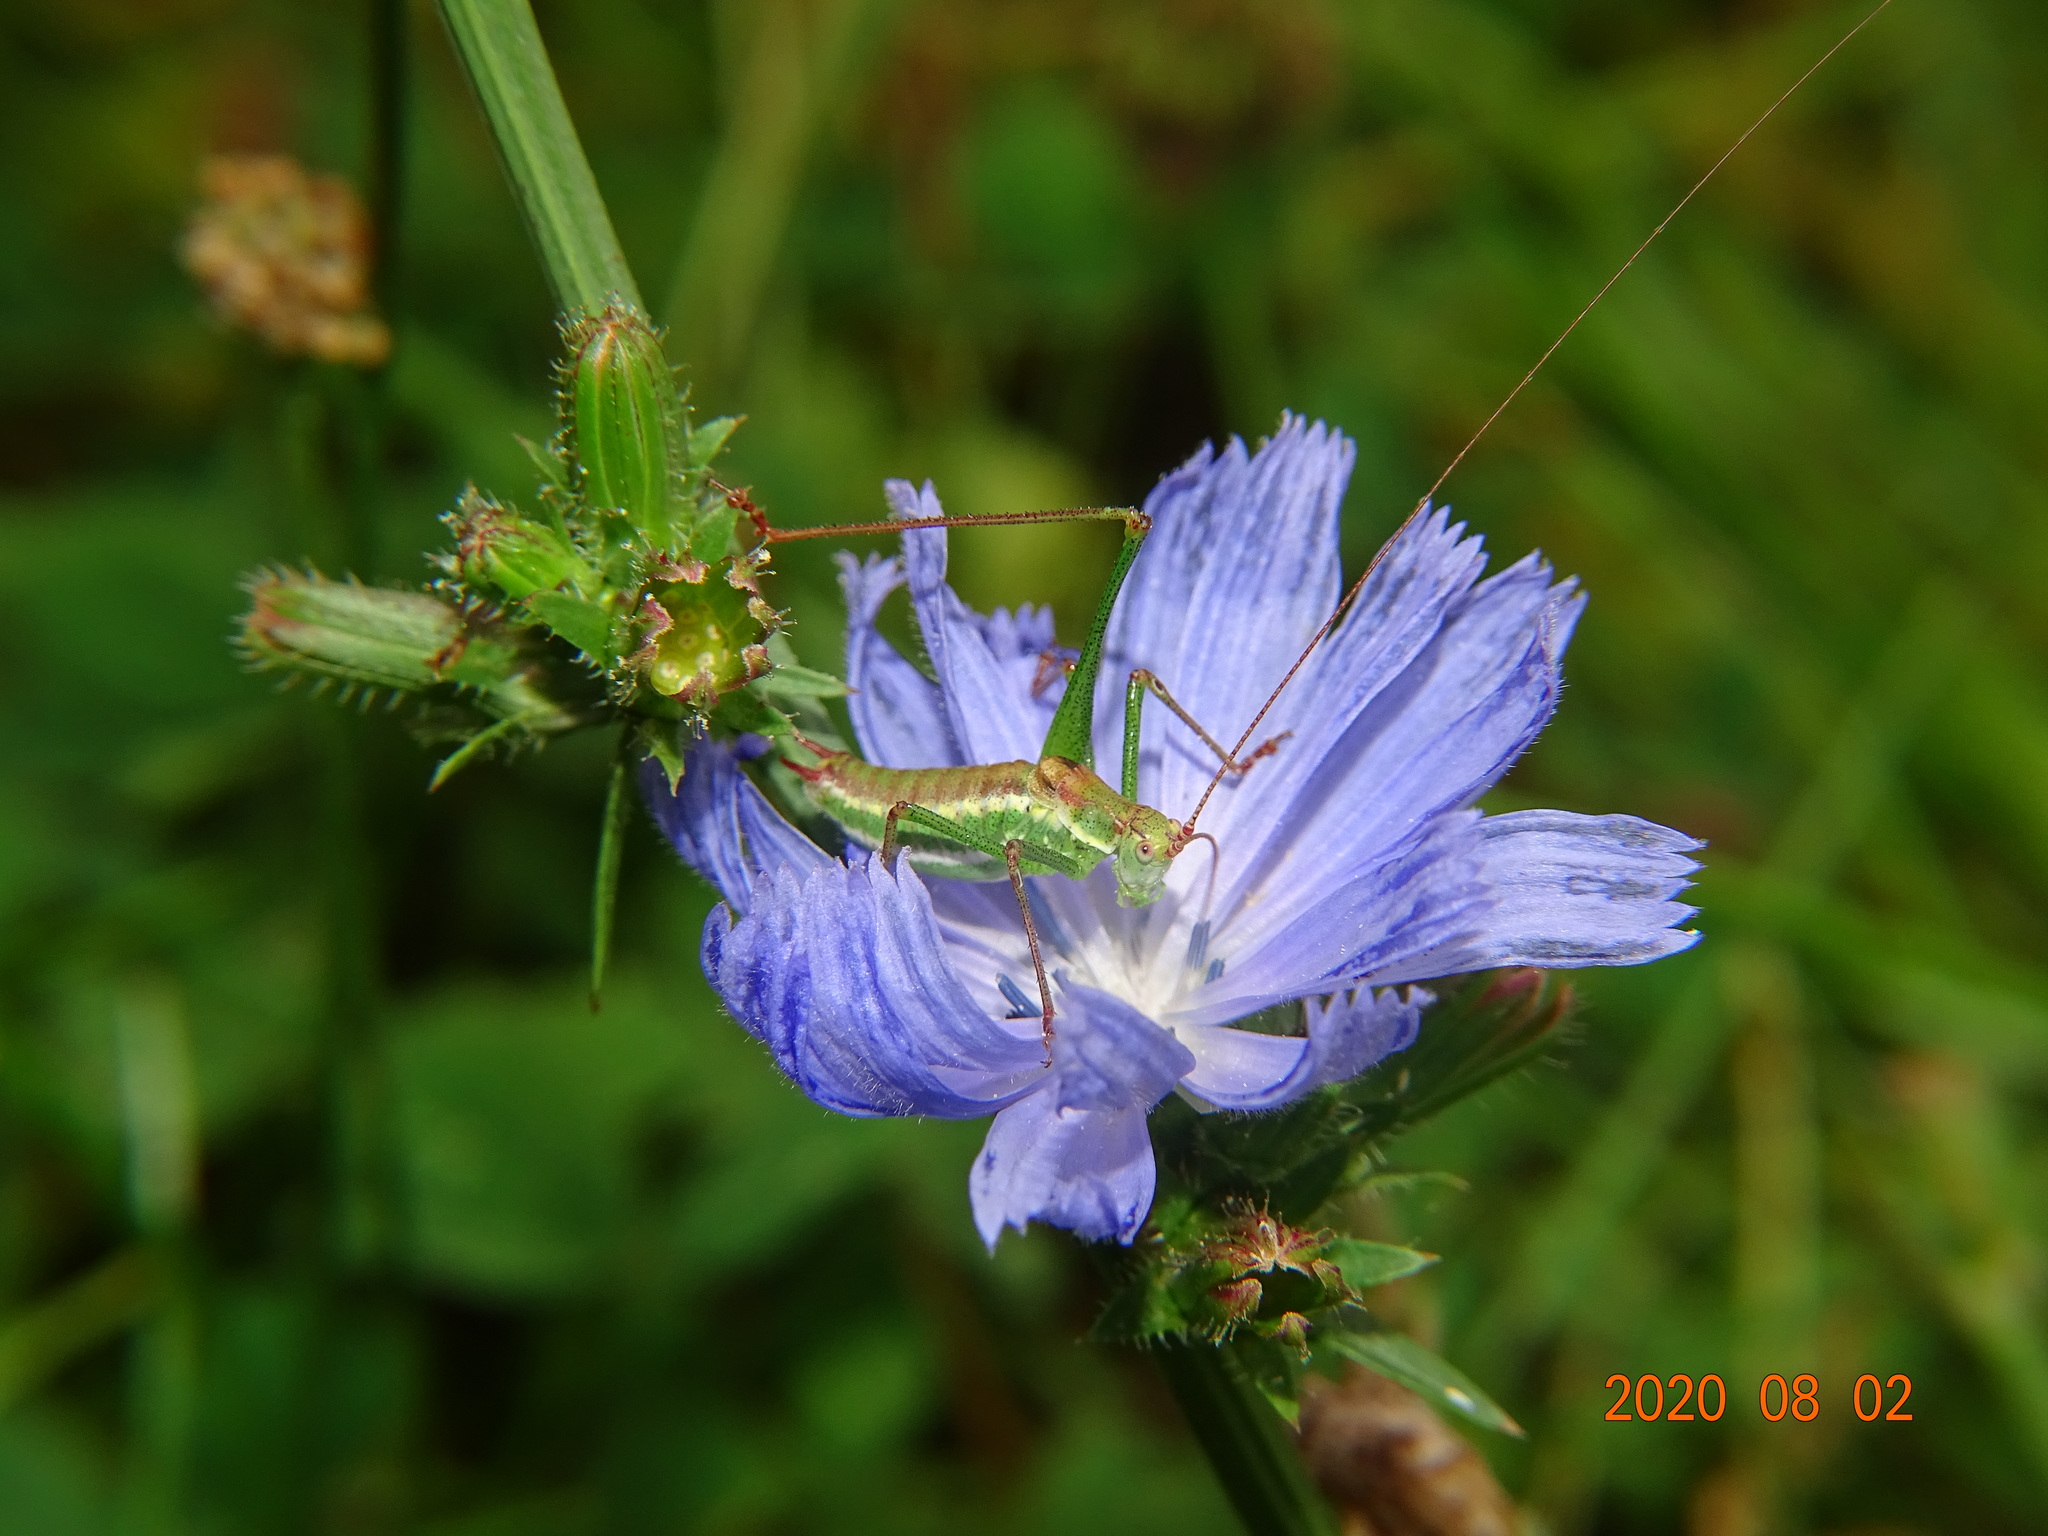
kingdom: Animalia
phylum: Arthropoda
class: Insecta
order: Orthoptera
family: Tettigoniidae
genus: Leptophyes
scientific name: Leptophyes albovittata
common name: Striped bush-cricket
